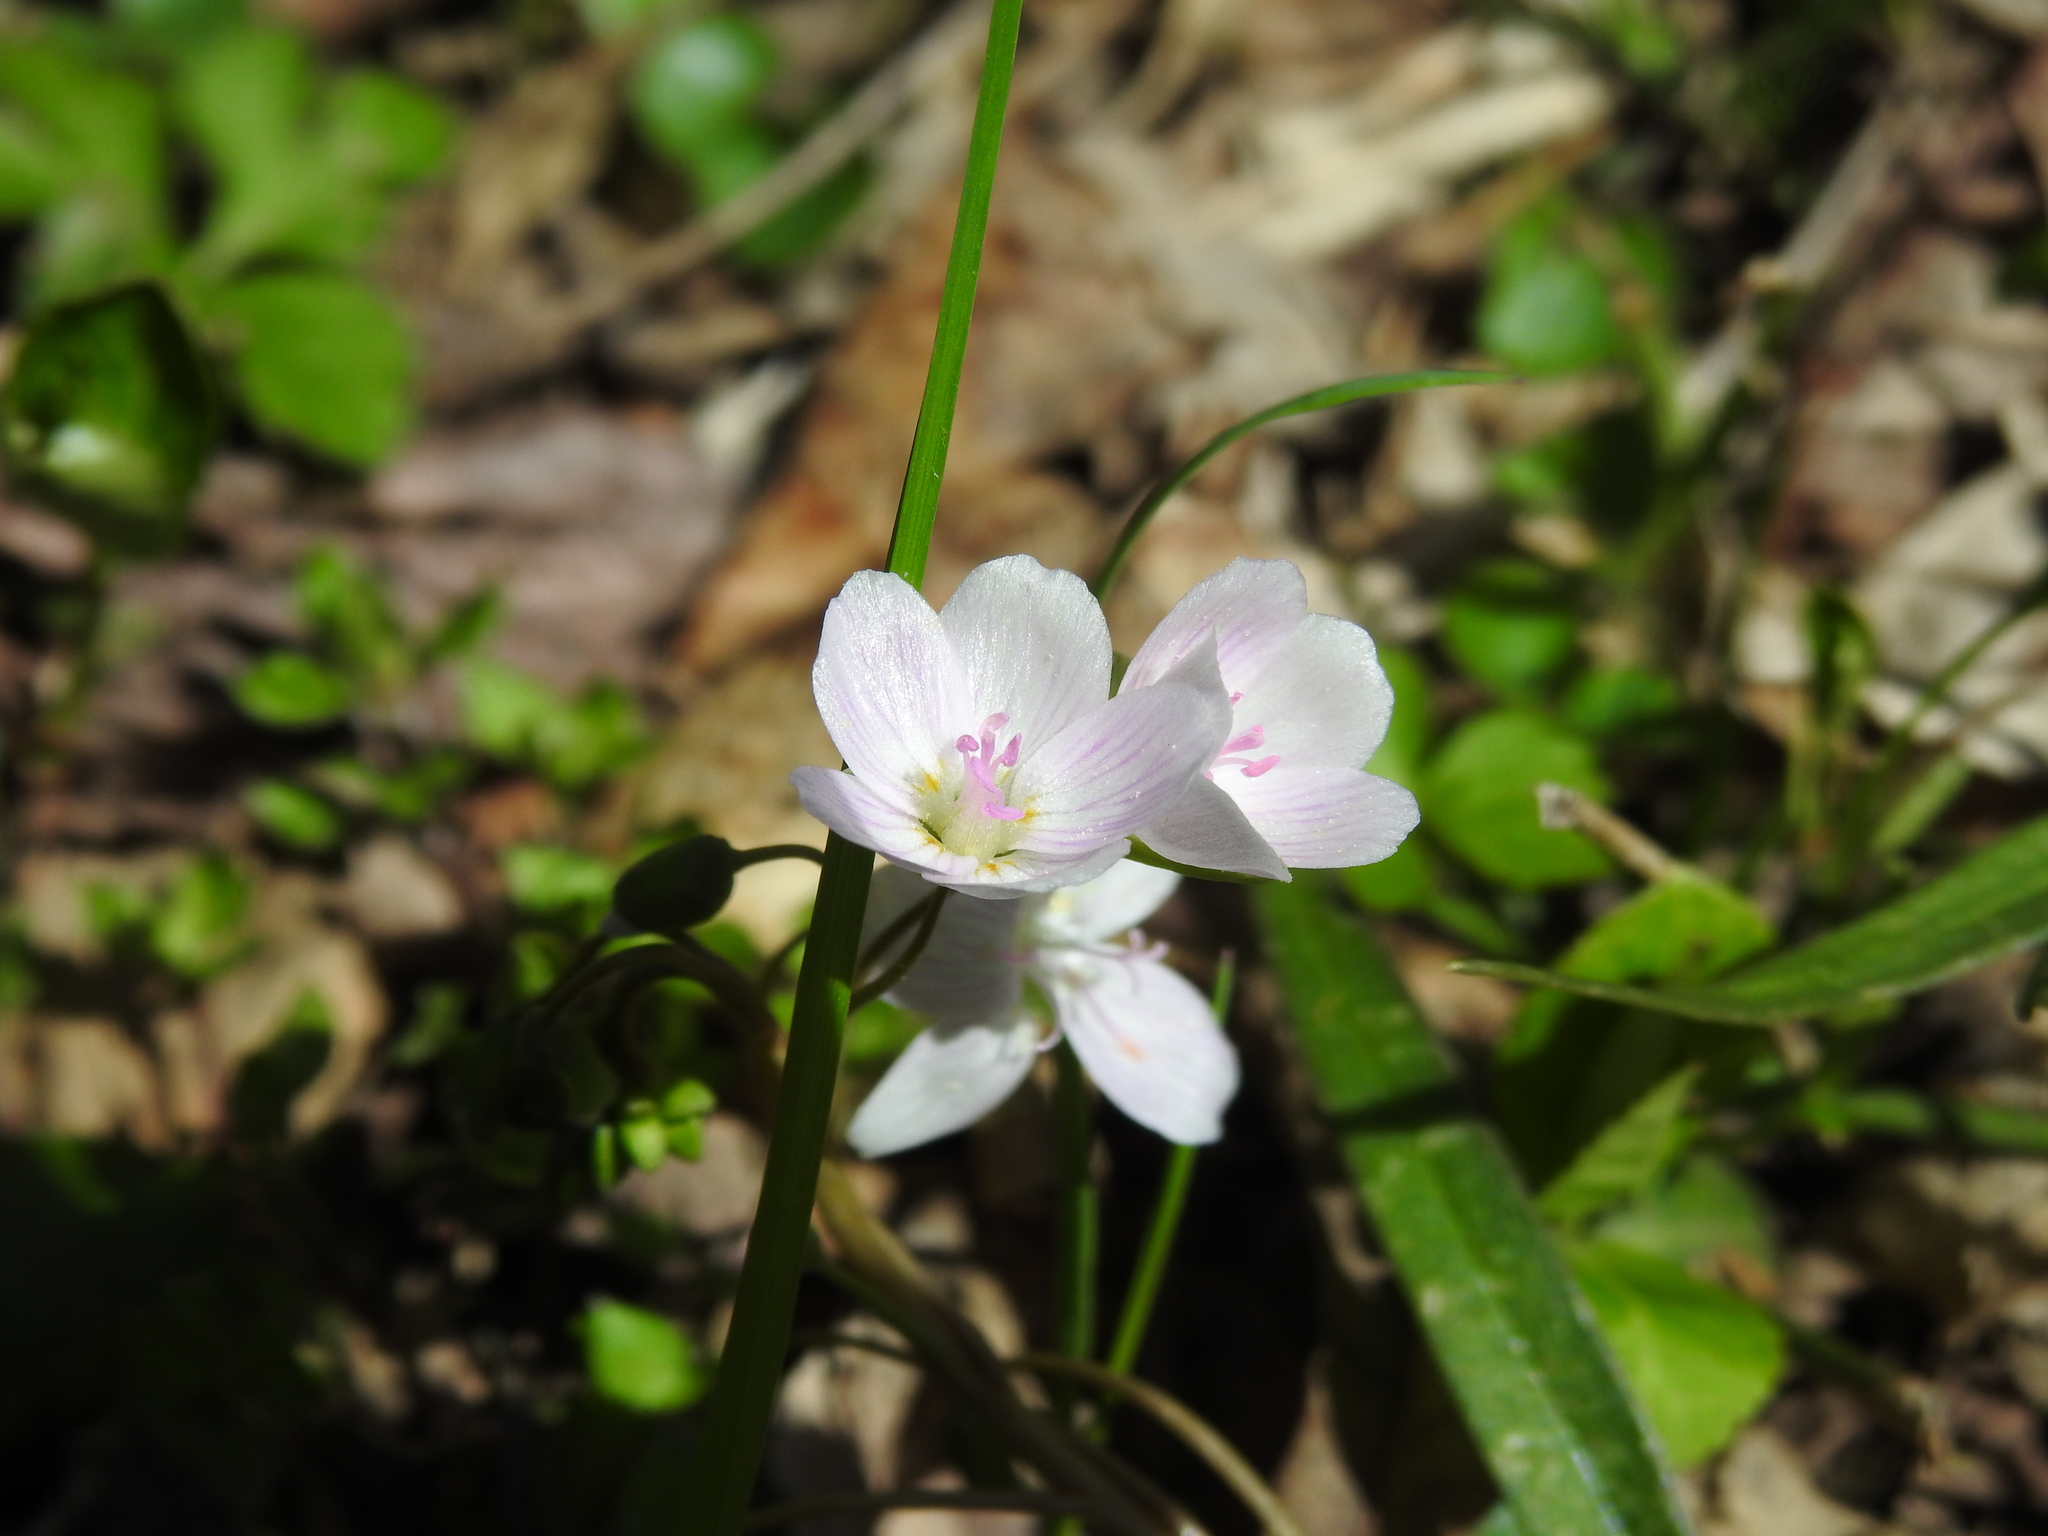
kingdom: Plantae
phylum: Tracheophyta
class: Magnoliopsida
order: Caryophyllales
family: Montiaceae
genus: Claytonia
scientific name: Claytonia virginica
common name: Virginia springbeauty
